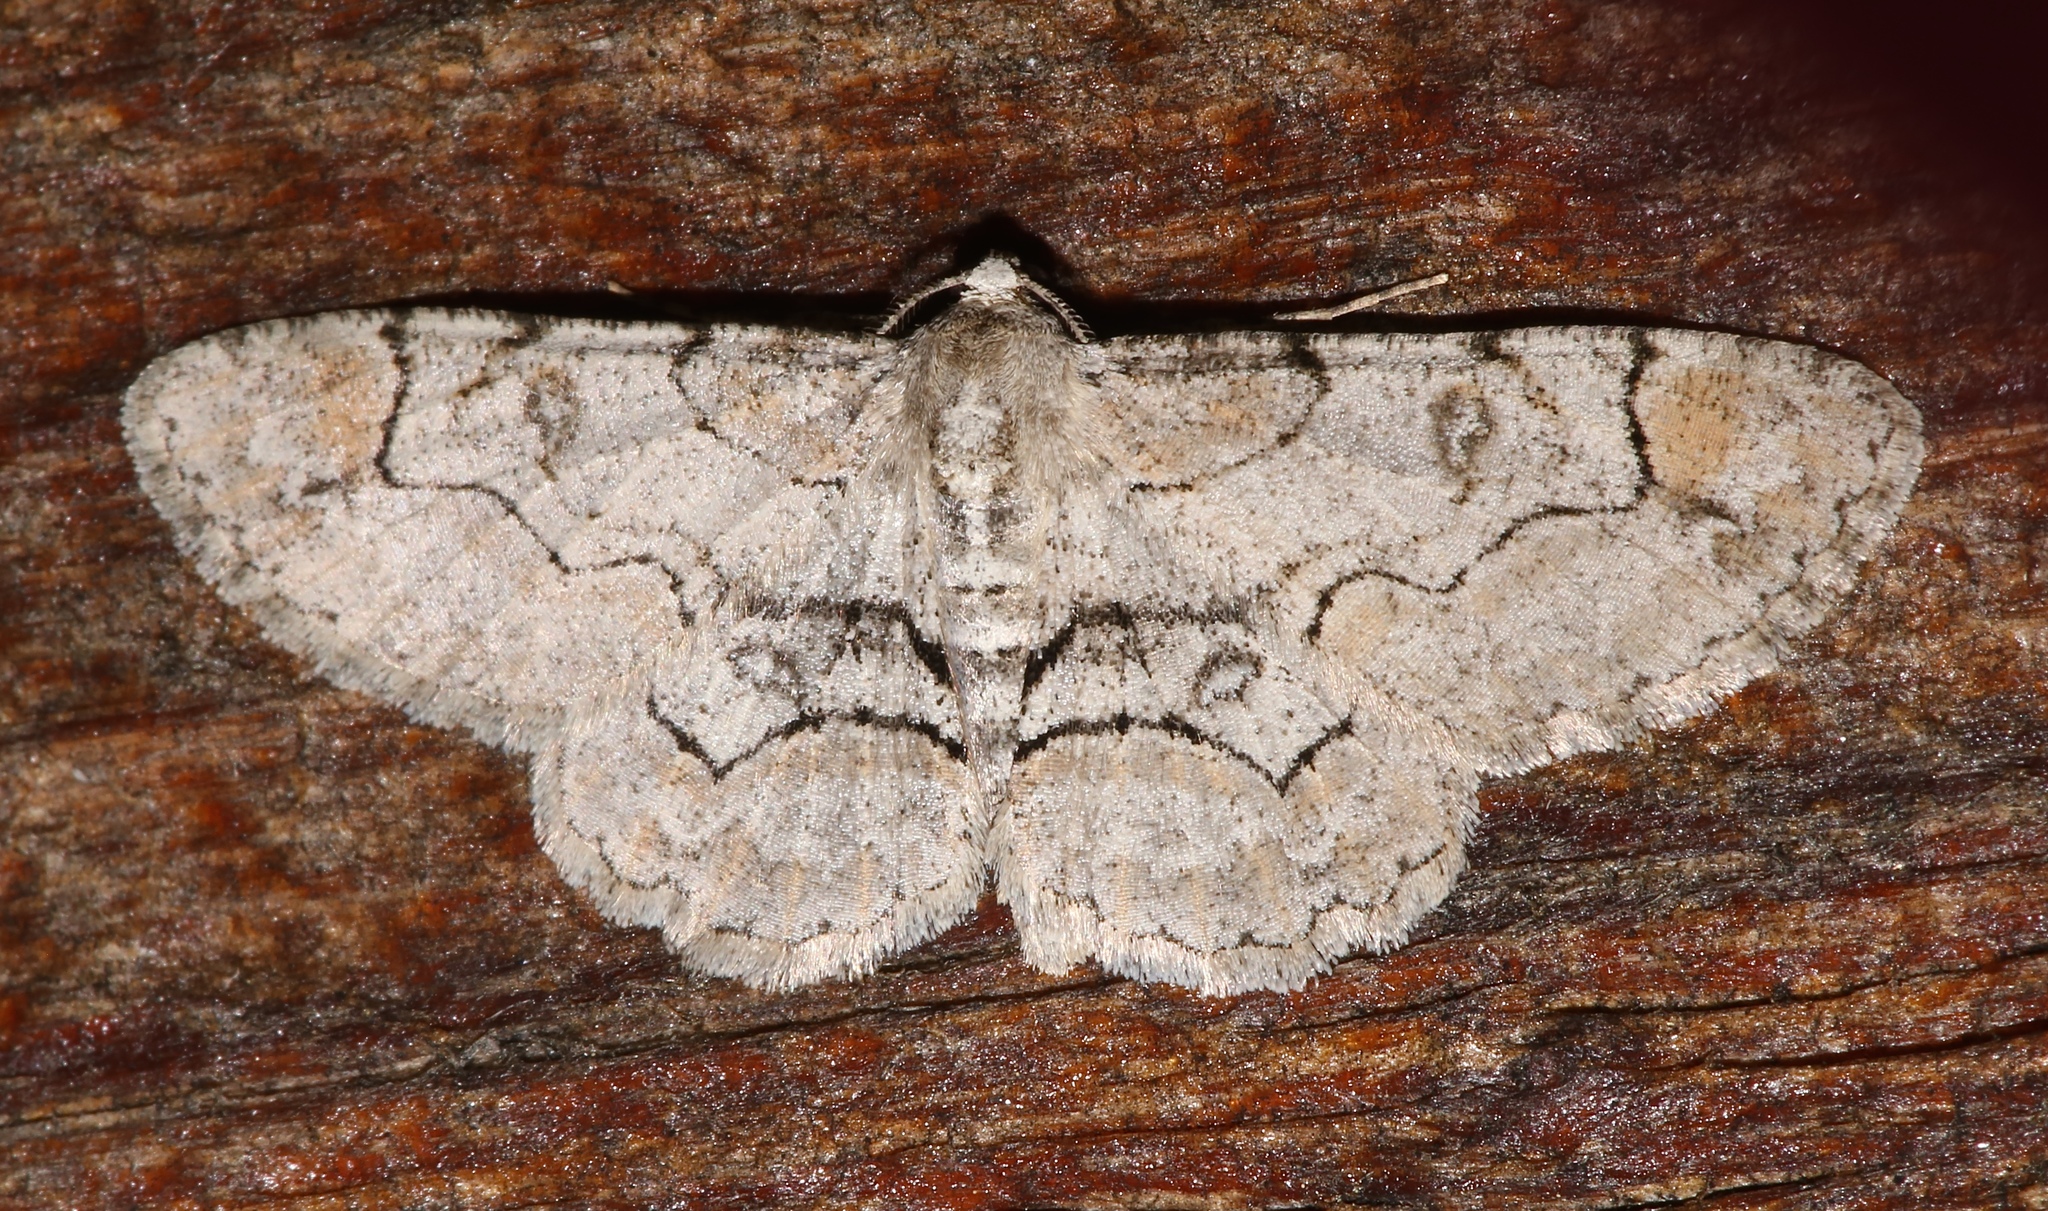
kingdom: Animalia
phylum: Arthropoda
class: Insecta
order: Lepidoptera
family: Geometridae
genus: Iridopsis
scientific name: Iridopsis larvaria
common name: Bent-line gray
